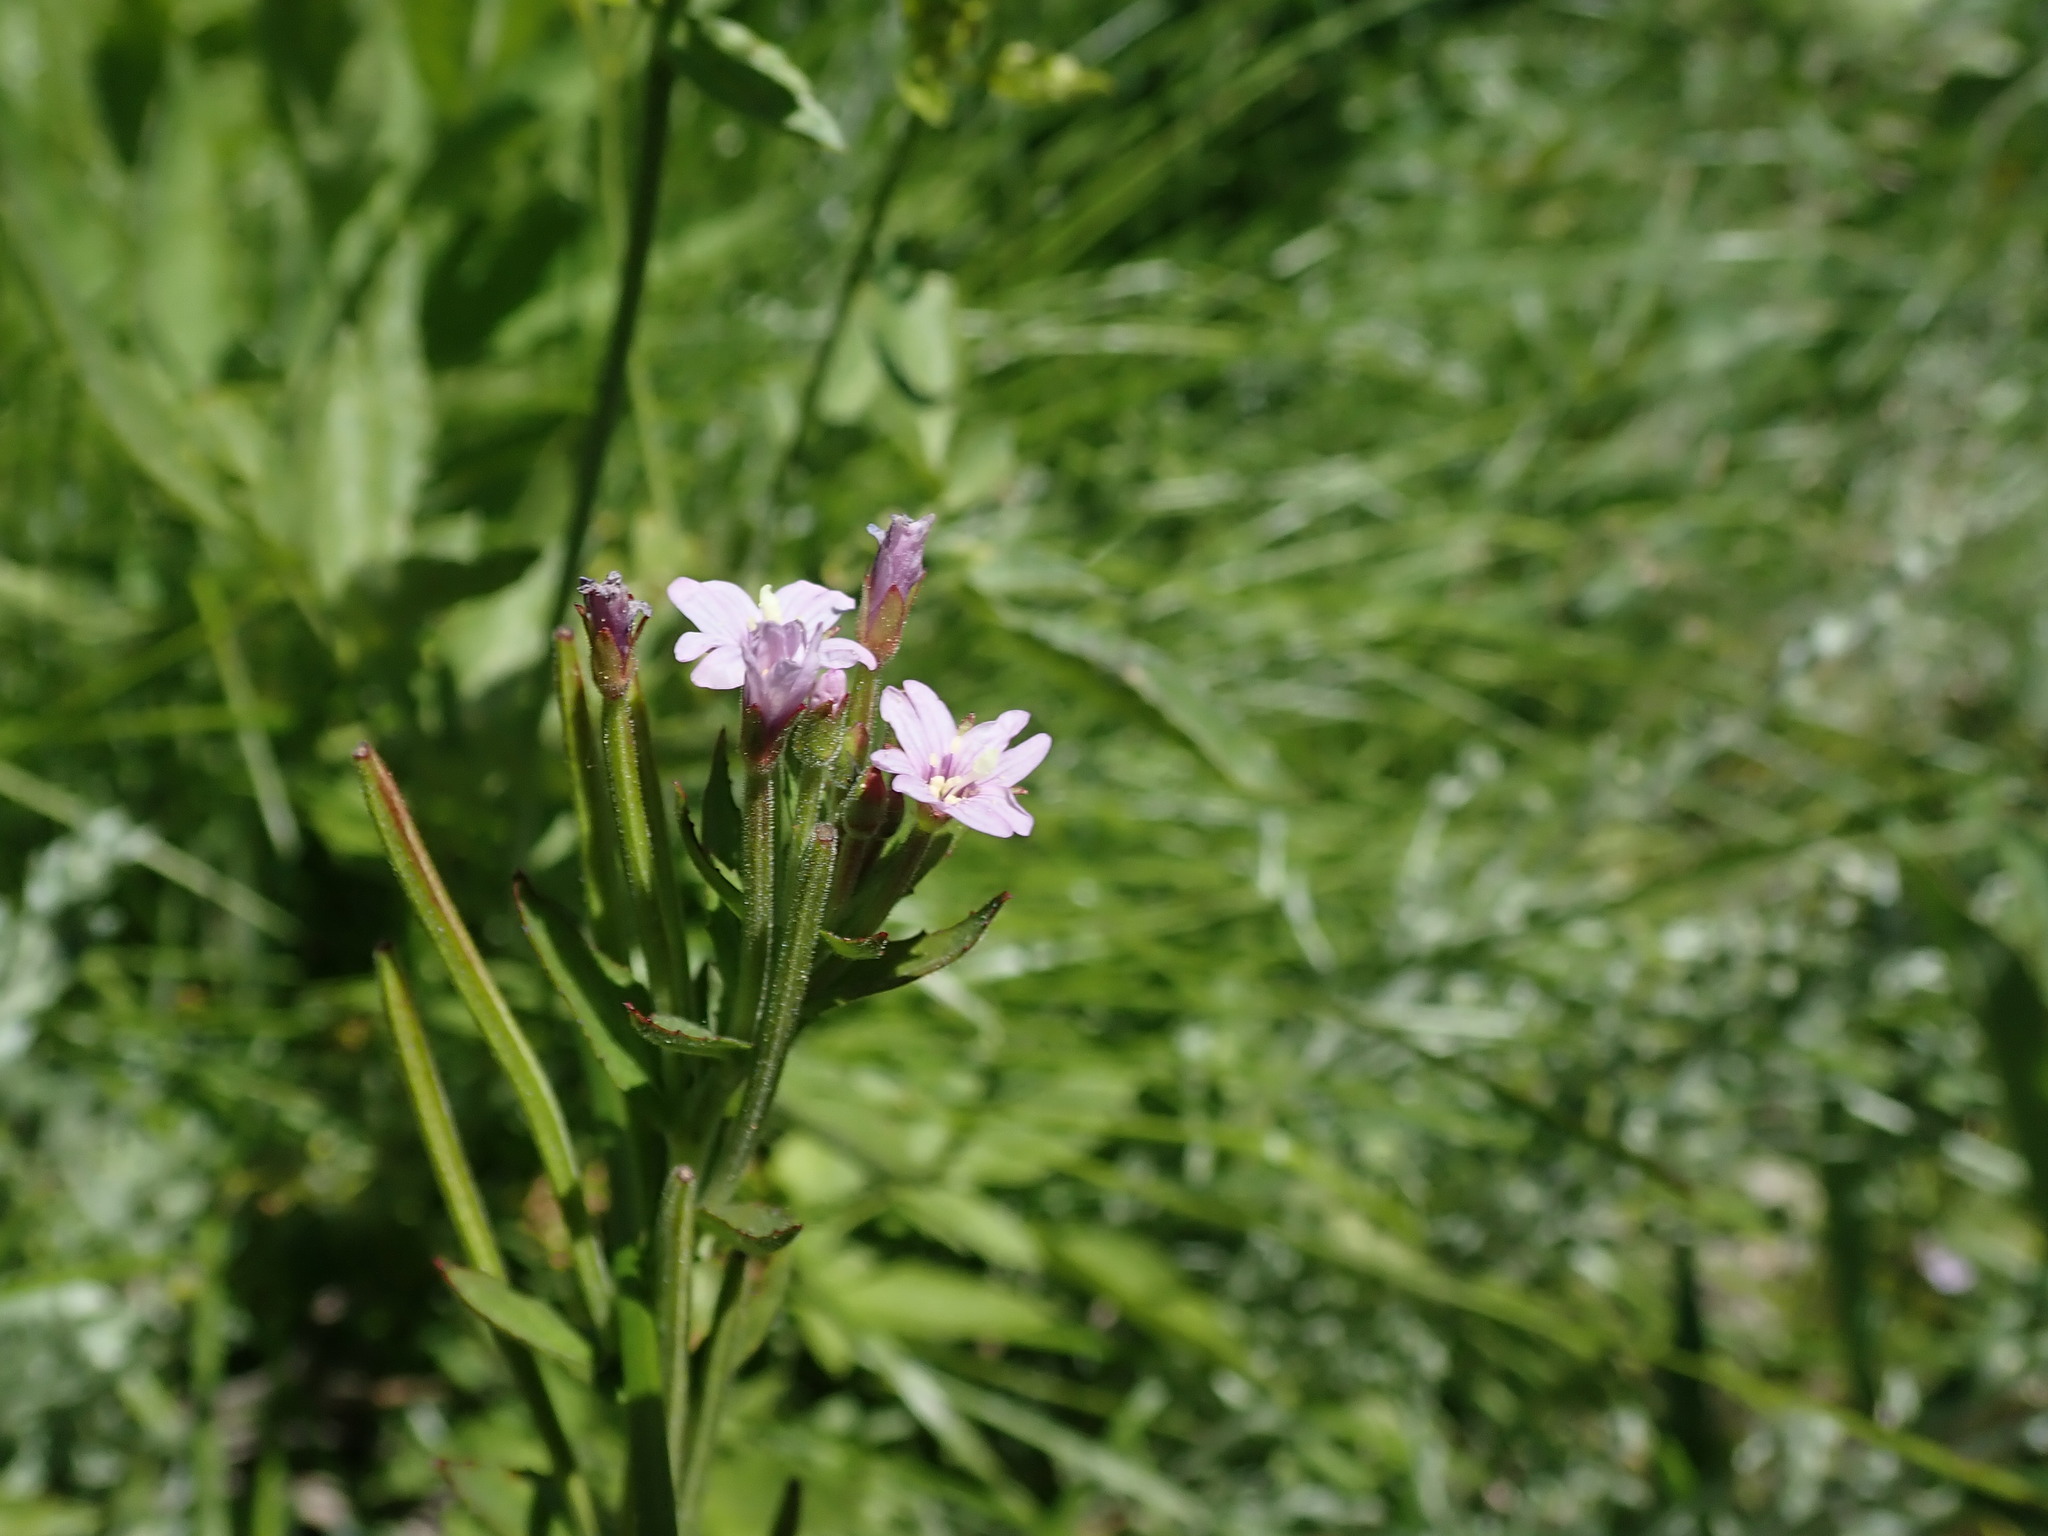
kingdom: Plantae
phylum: Tracheophyta
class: Magnoliopsida
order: Myrtales
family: Onagraceae
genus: Epilobium
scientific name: Epilobium ciliatum
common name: American willowherb
